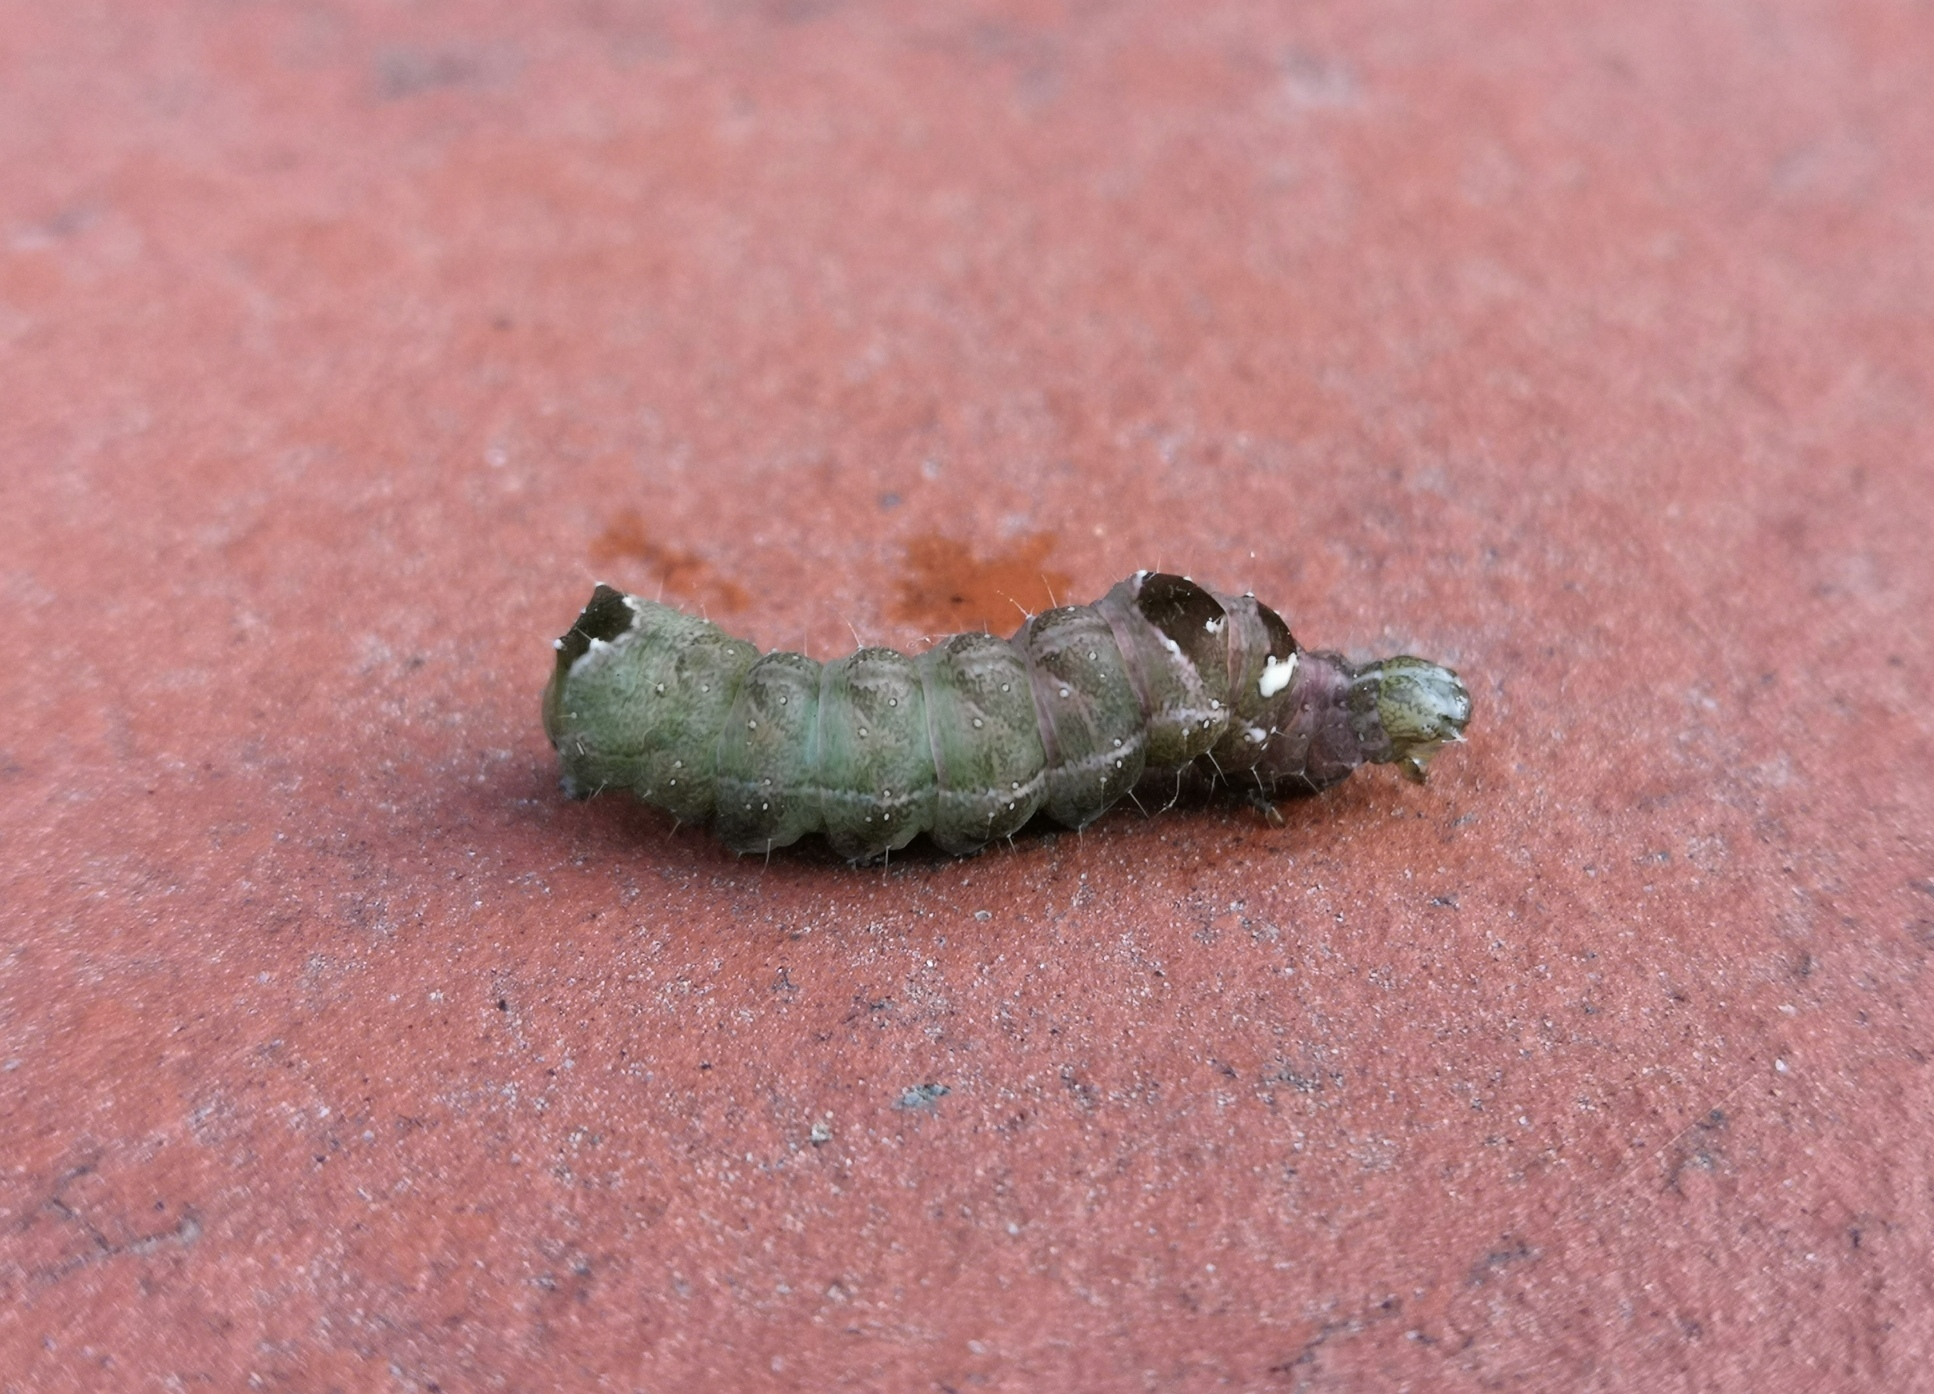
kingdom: Animalia
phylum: Arthropoda
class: Insecta
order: Lepidoptera
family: Noctuidae
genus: Abrostola
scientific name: Abrostola triplasia
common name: Dark spectacle
